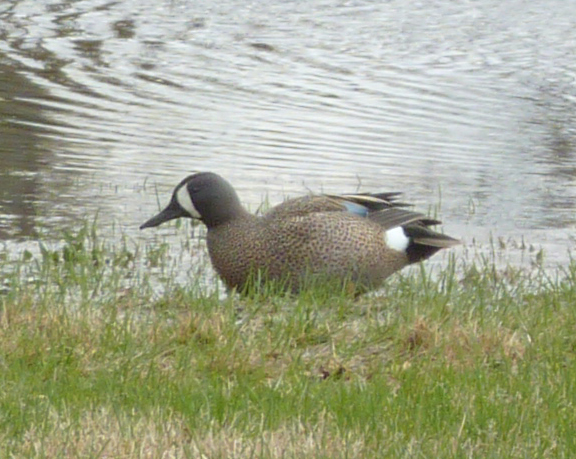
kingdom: Animalia
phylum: Chordata
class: Aves
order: Anseriformes
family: Anatidae
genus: Spatula
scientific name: Spatula discors
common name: Blue-winged teal
